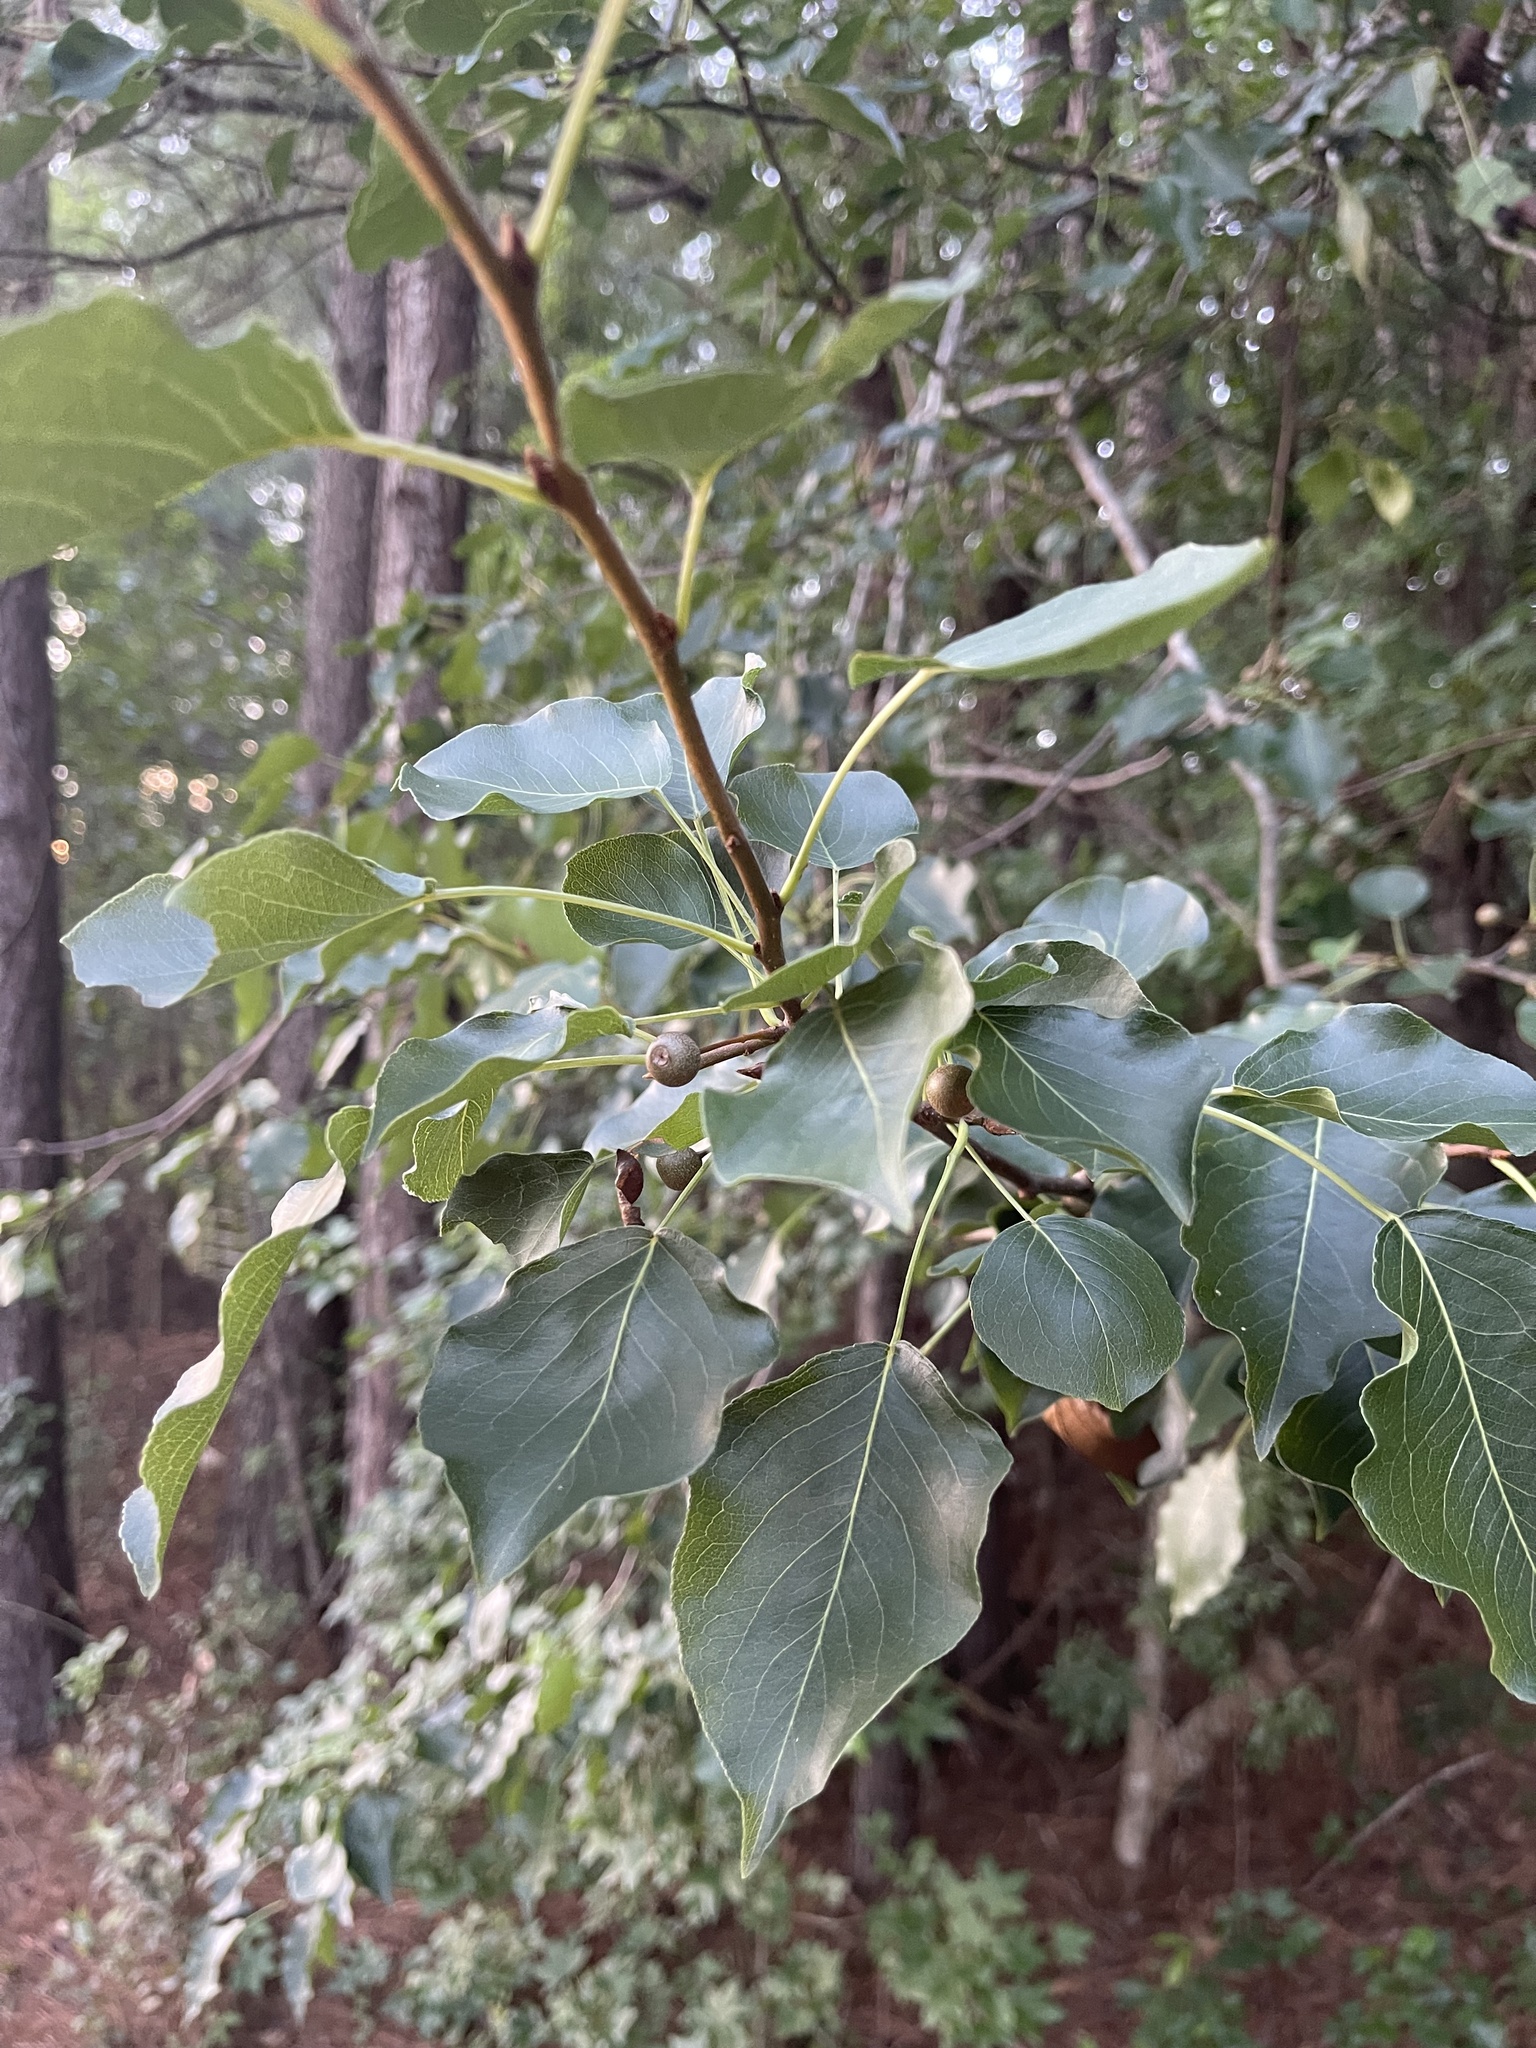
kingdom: Plantae
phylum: Tracheophyta
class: Magnoliopsida
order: Rosales
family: Rosaceae
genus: Pyrus
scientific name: Pyrus calleryana
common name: Callery pear
